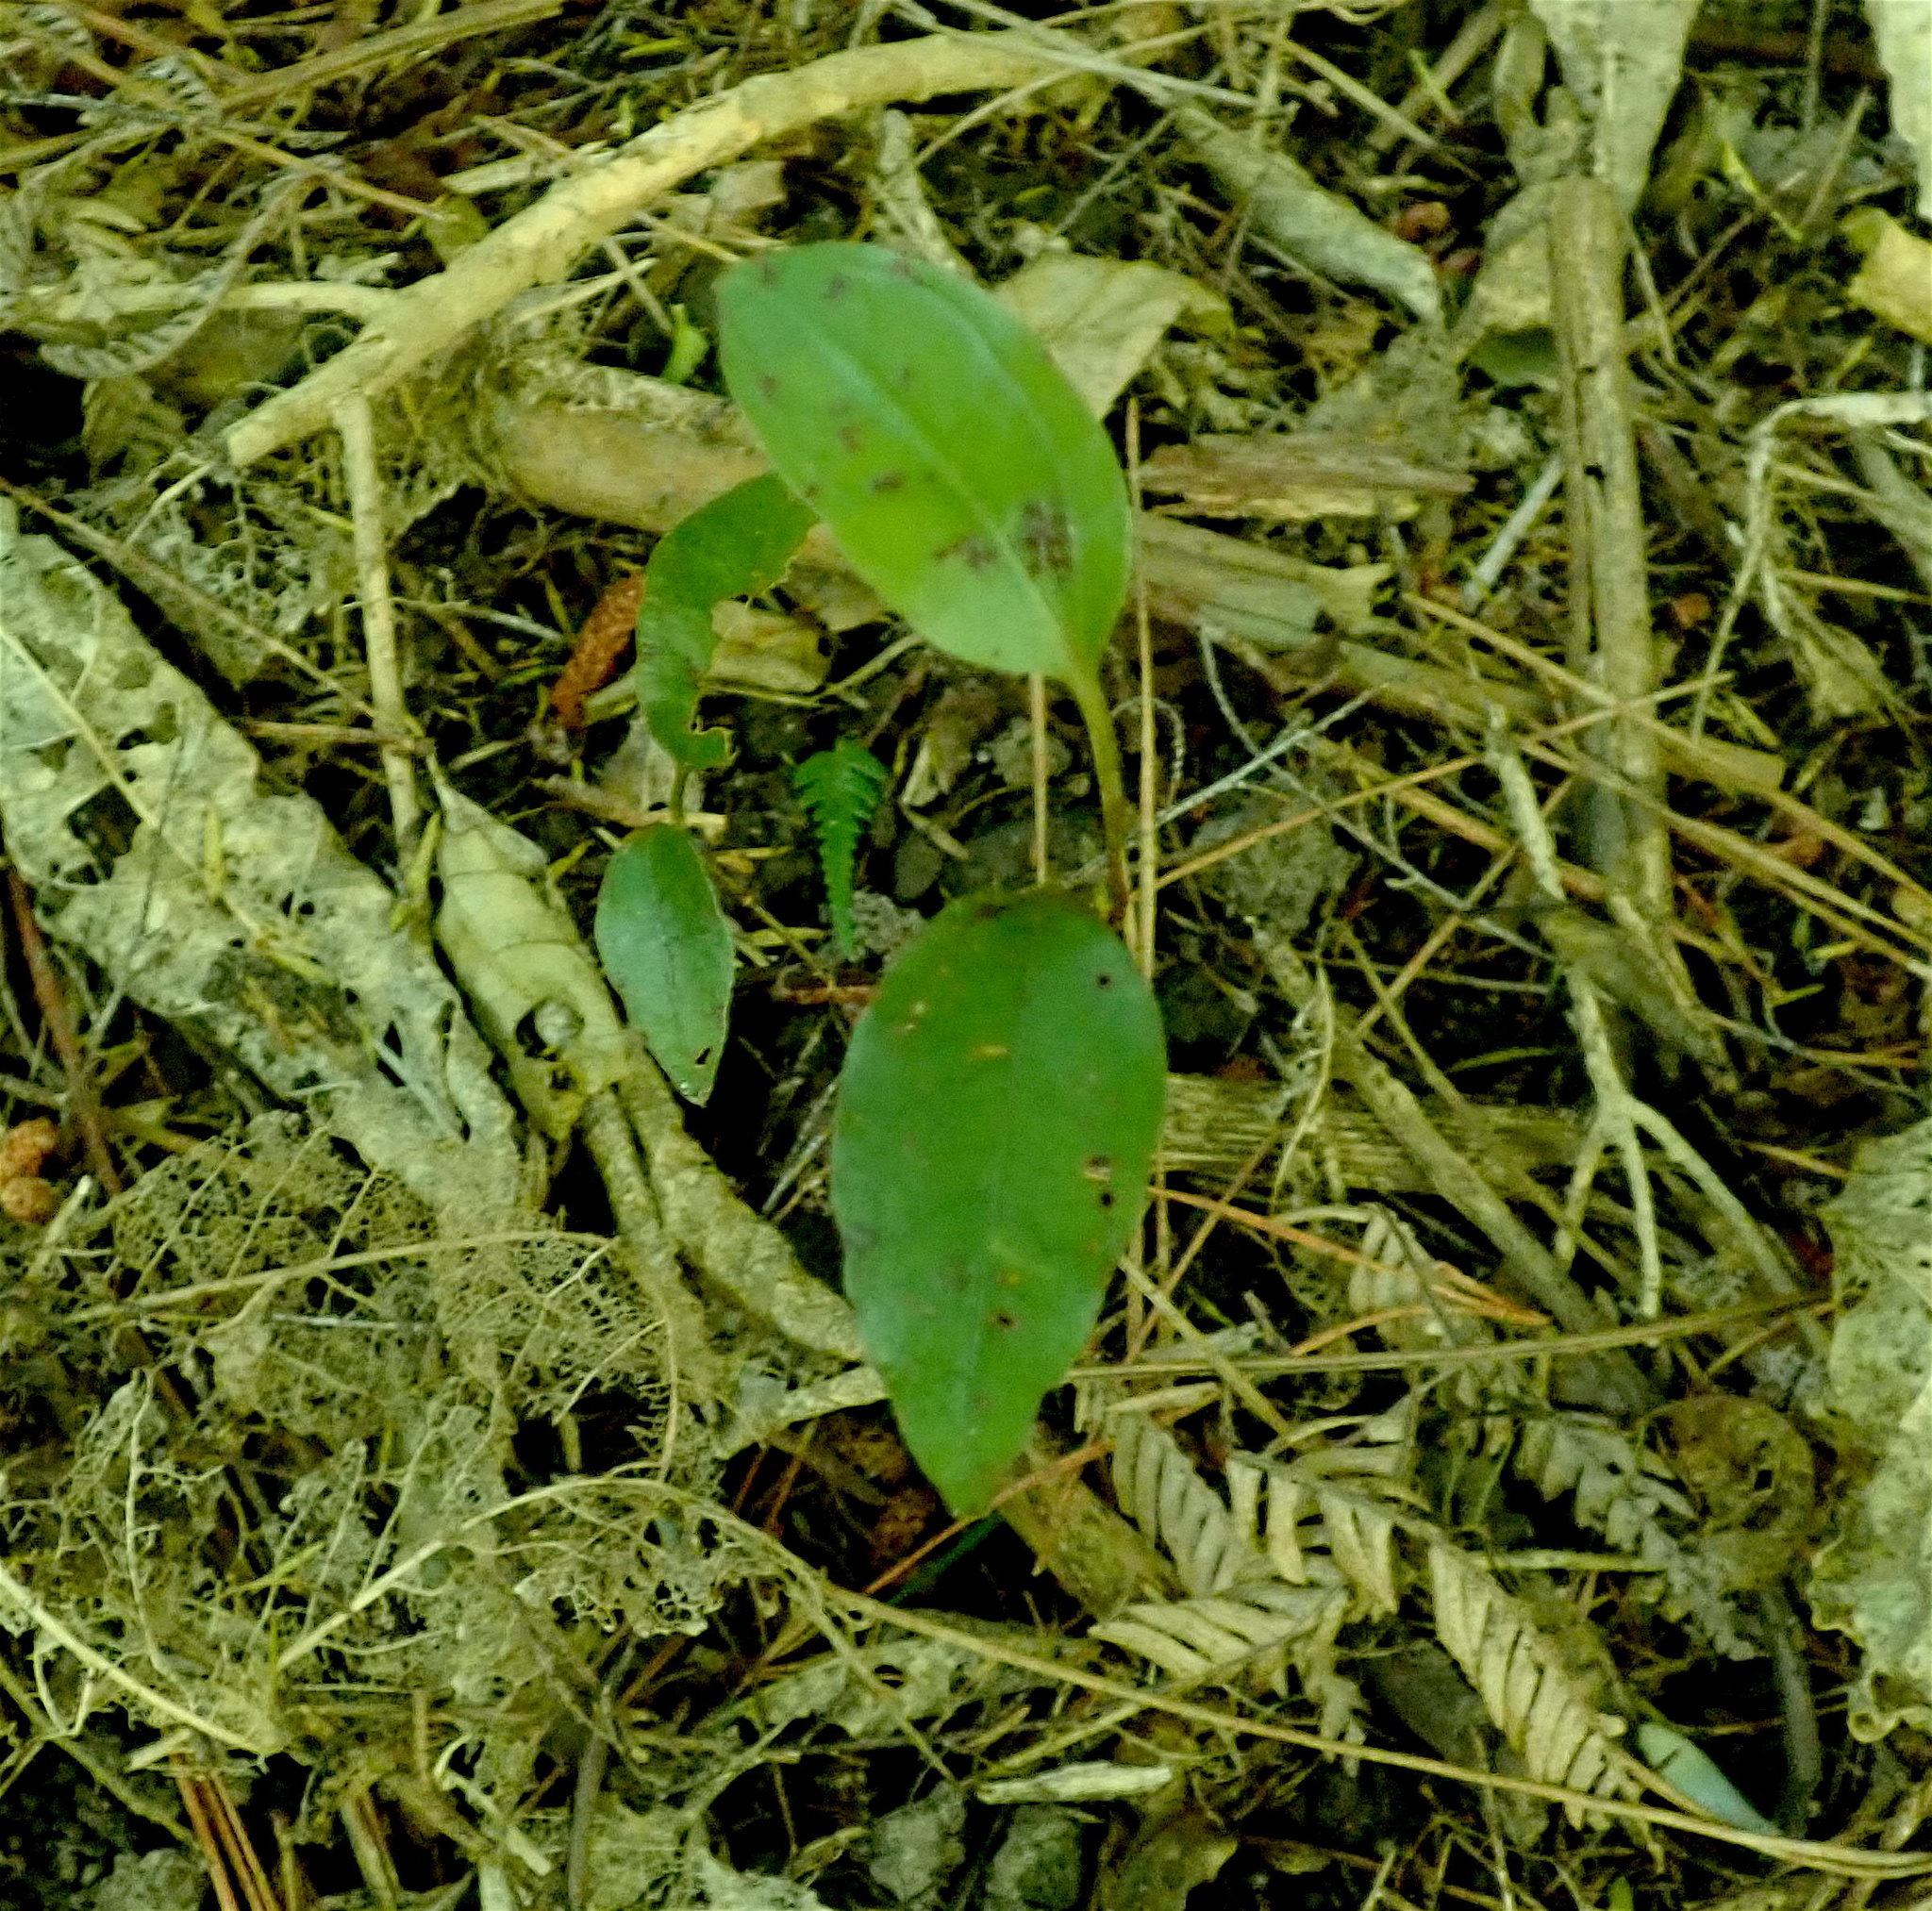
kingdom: Plantae
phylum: Tracheophyta
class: Liliopsida
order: Liliales
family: Ripogonaceae
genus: Ripogonum
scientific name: Ripogonum scandens
